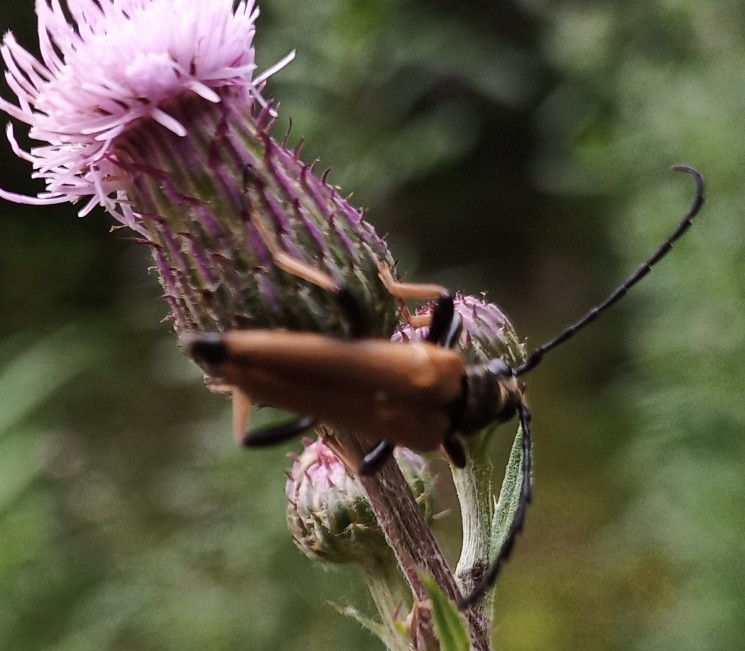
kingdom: Animalia
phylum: Arthropoda
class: Insecta
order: Coleoptera
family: Cerambycidae
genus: Stictoleptura
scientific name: Stictoleptura rubra
